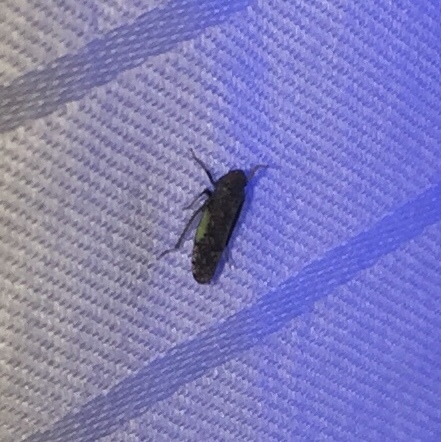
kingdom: Animalia
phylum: Arthropoda
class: Insecta
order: Hemiptera
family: Cicadellidae
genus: Orientus
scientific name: Orientus ishidae
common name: Japanese leafhopper
